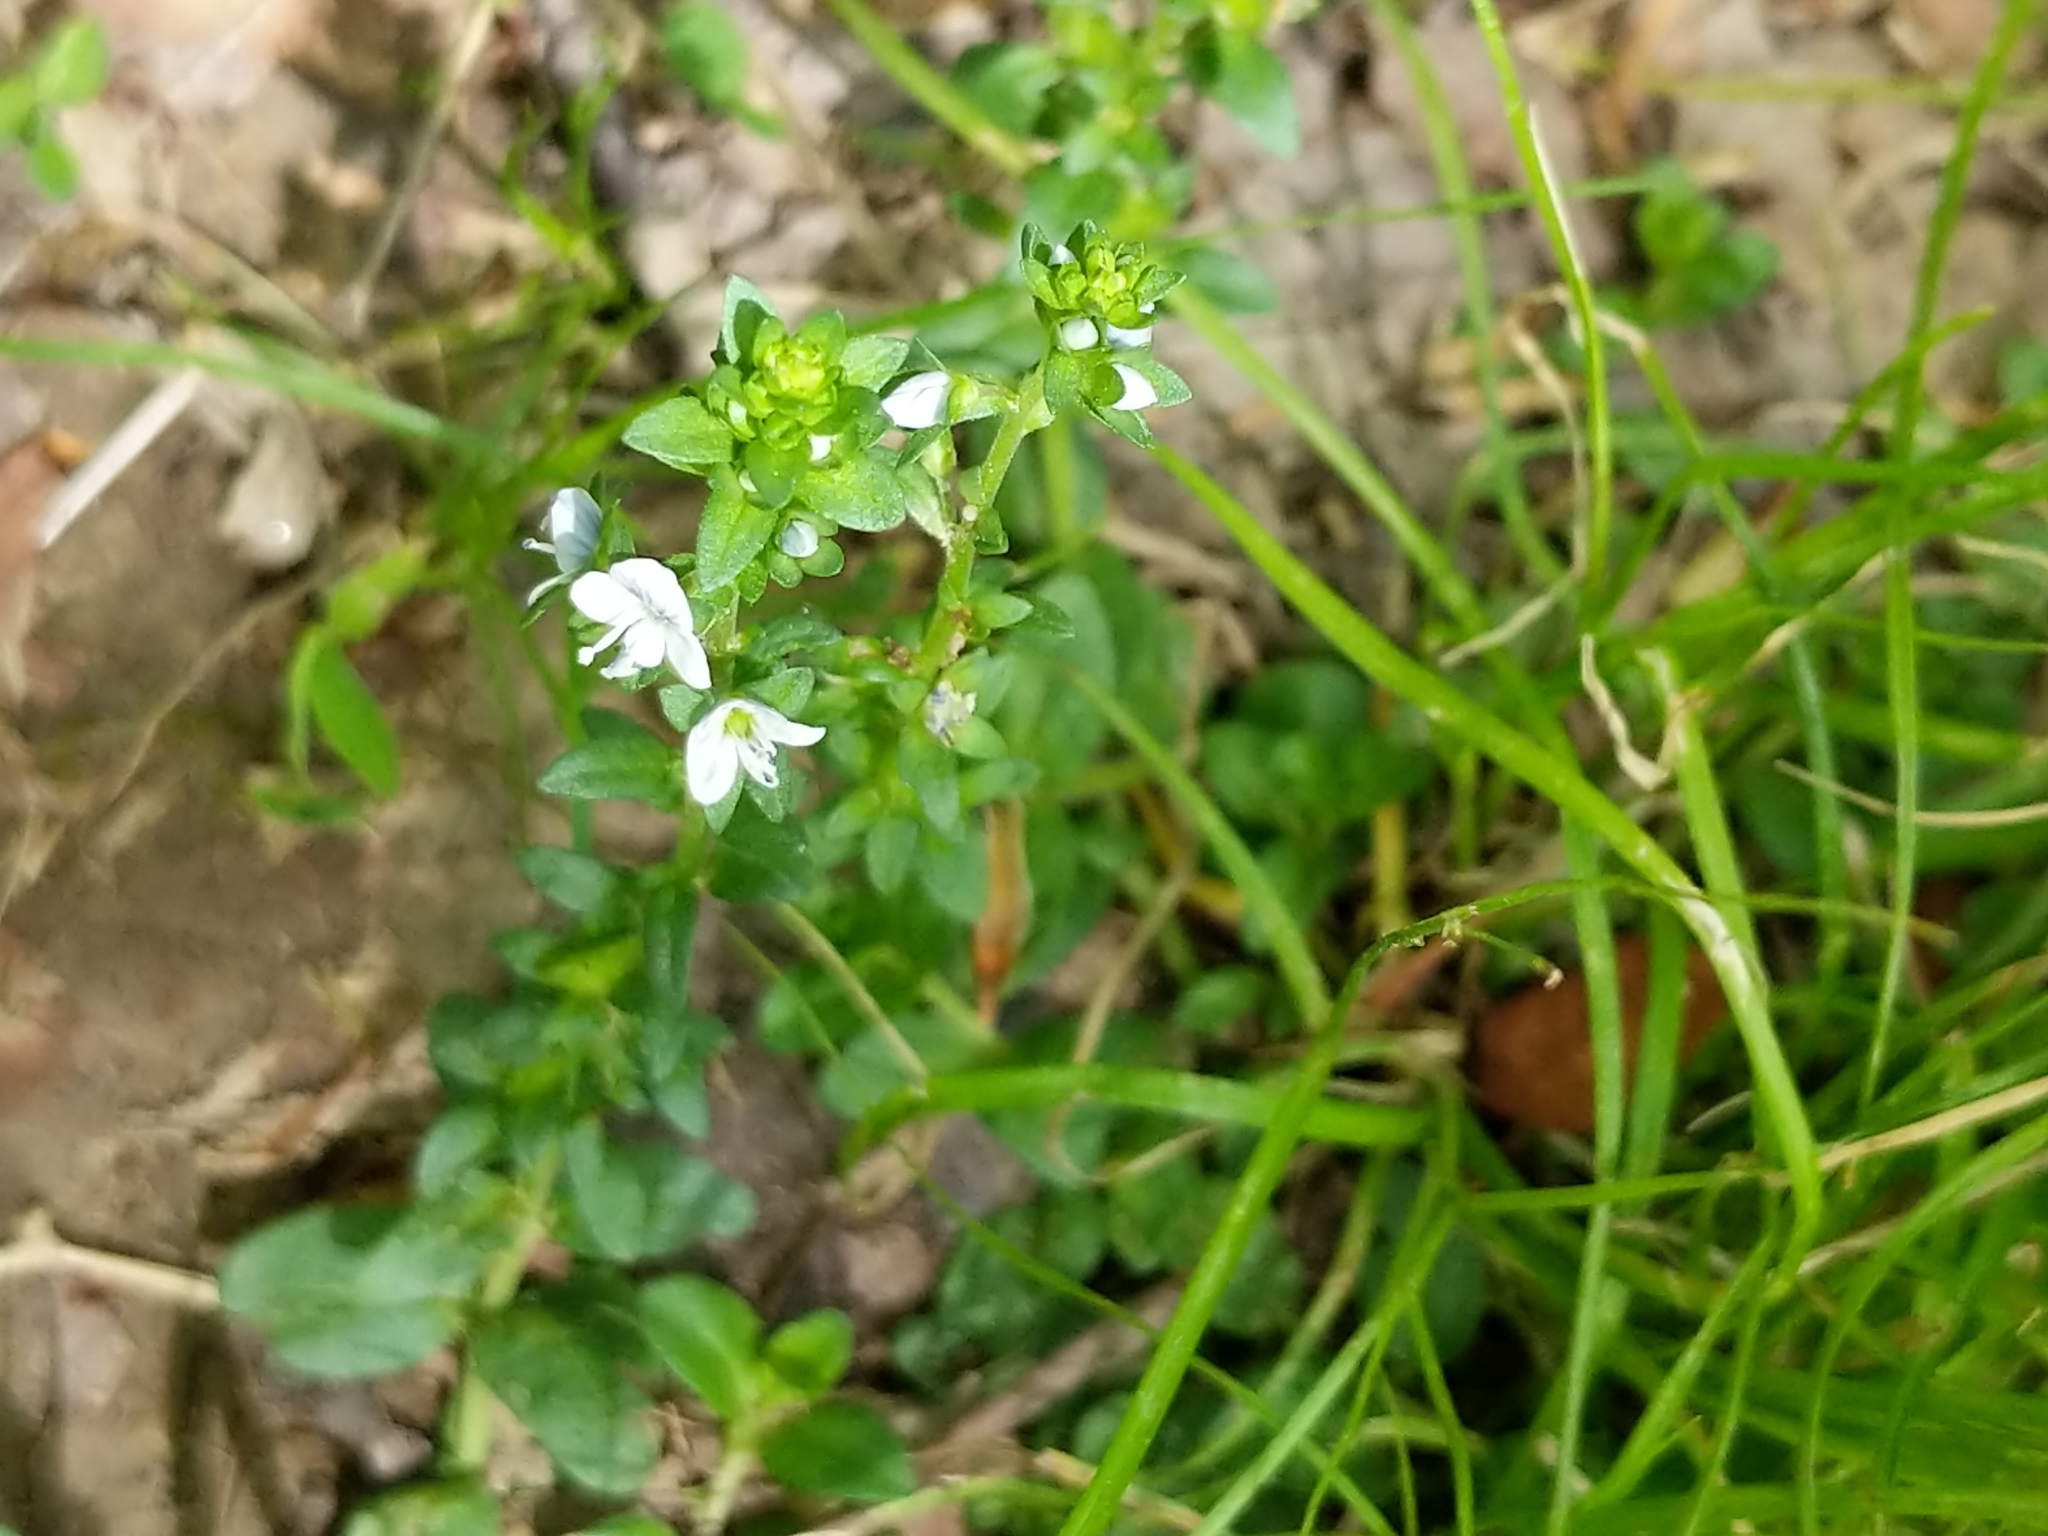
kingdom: Plantae
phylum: Tracheophyta
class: Magnoliopsida
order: Lamiales
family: Plantaginaceae
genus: Veronica
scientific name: Veronica serpyllifolia
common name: Thyme-leaved speedwell
